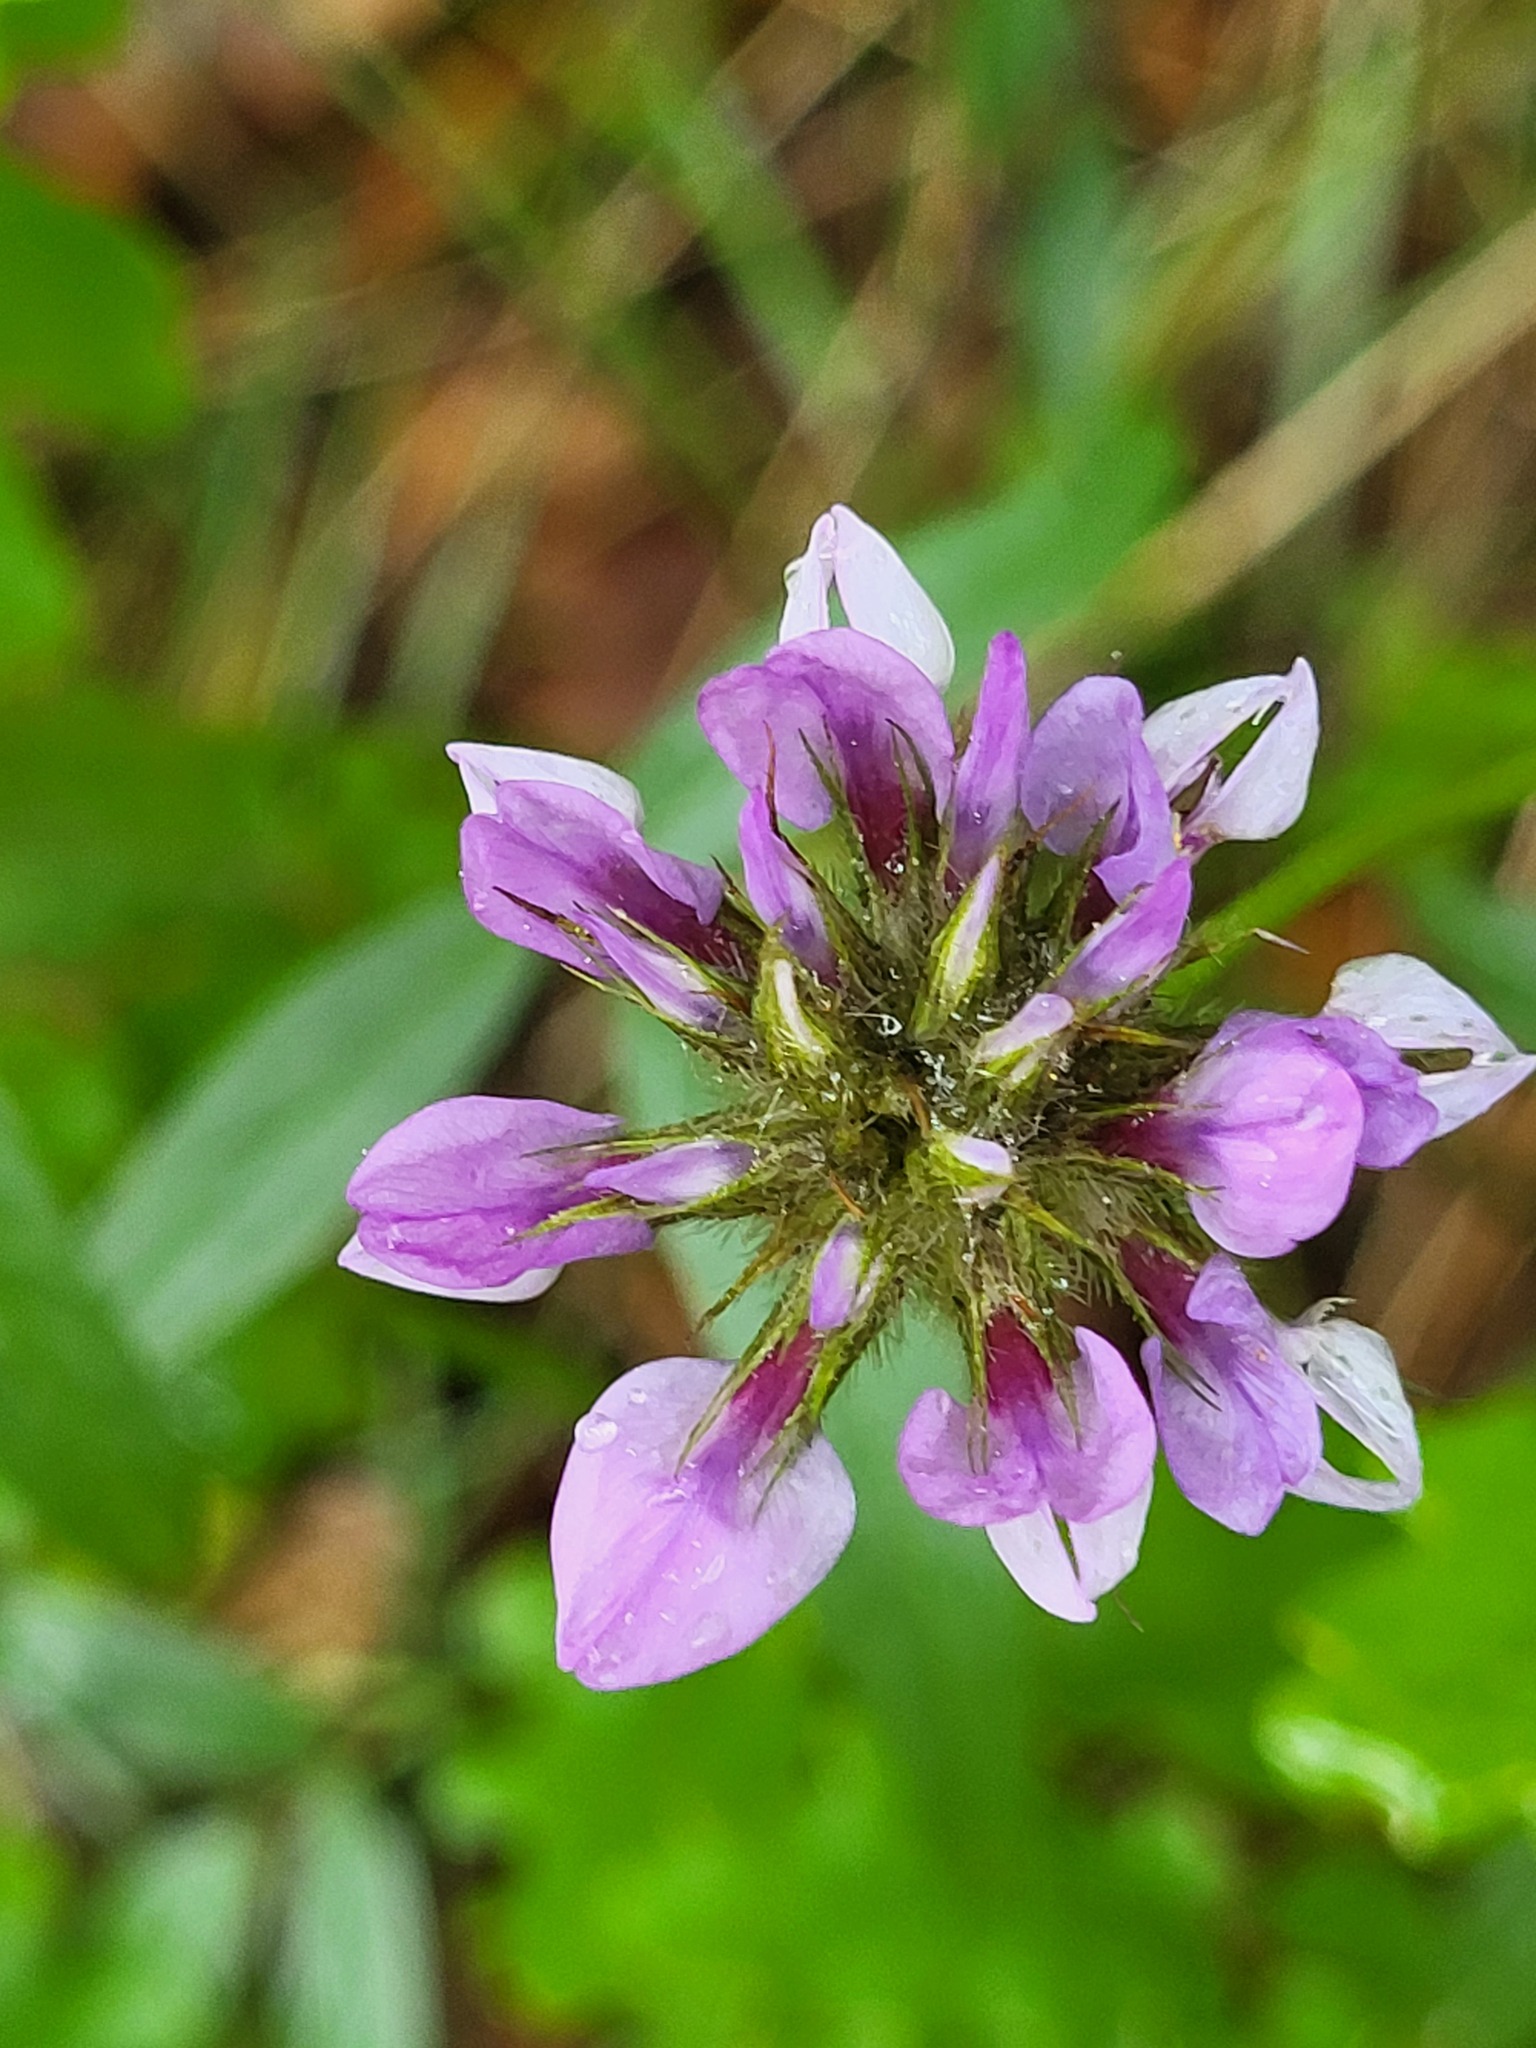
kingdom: Plantae
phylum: Tracheophyta
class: Magnoliopsida
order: Fabales
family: Fabaceae
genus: Bituminaria
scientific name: Bituminaria bituminosa
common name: Arabian pea
